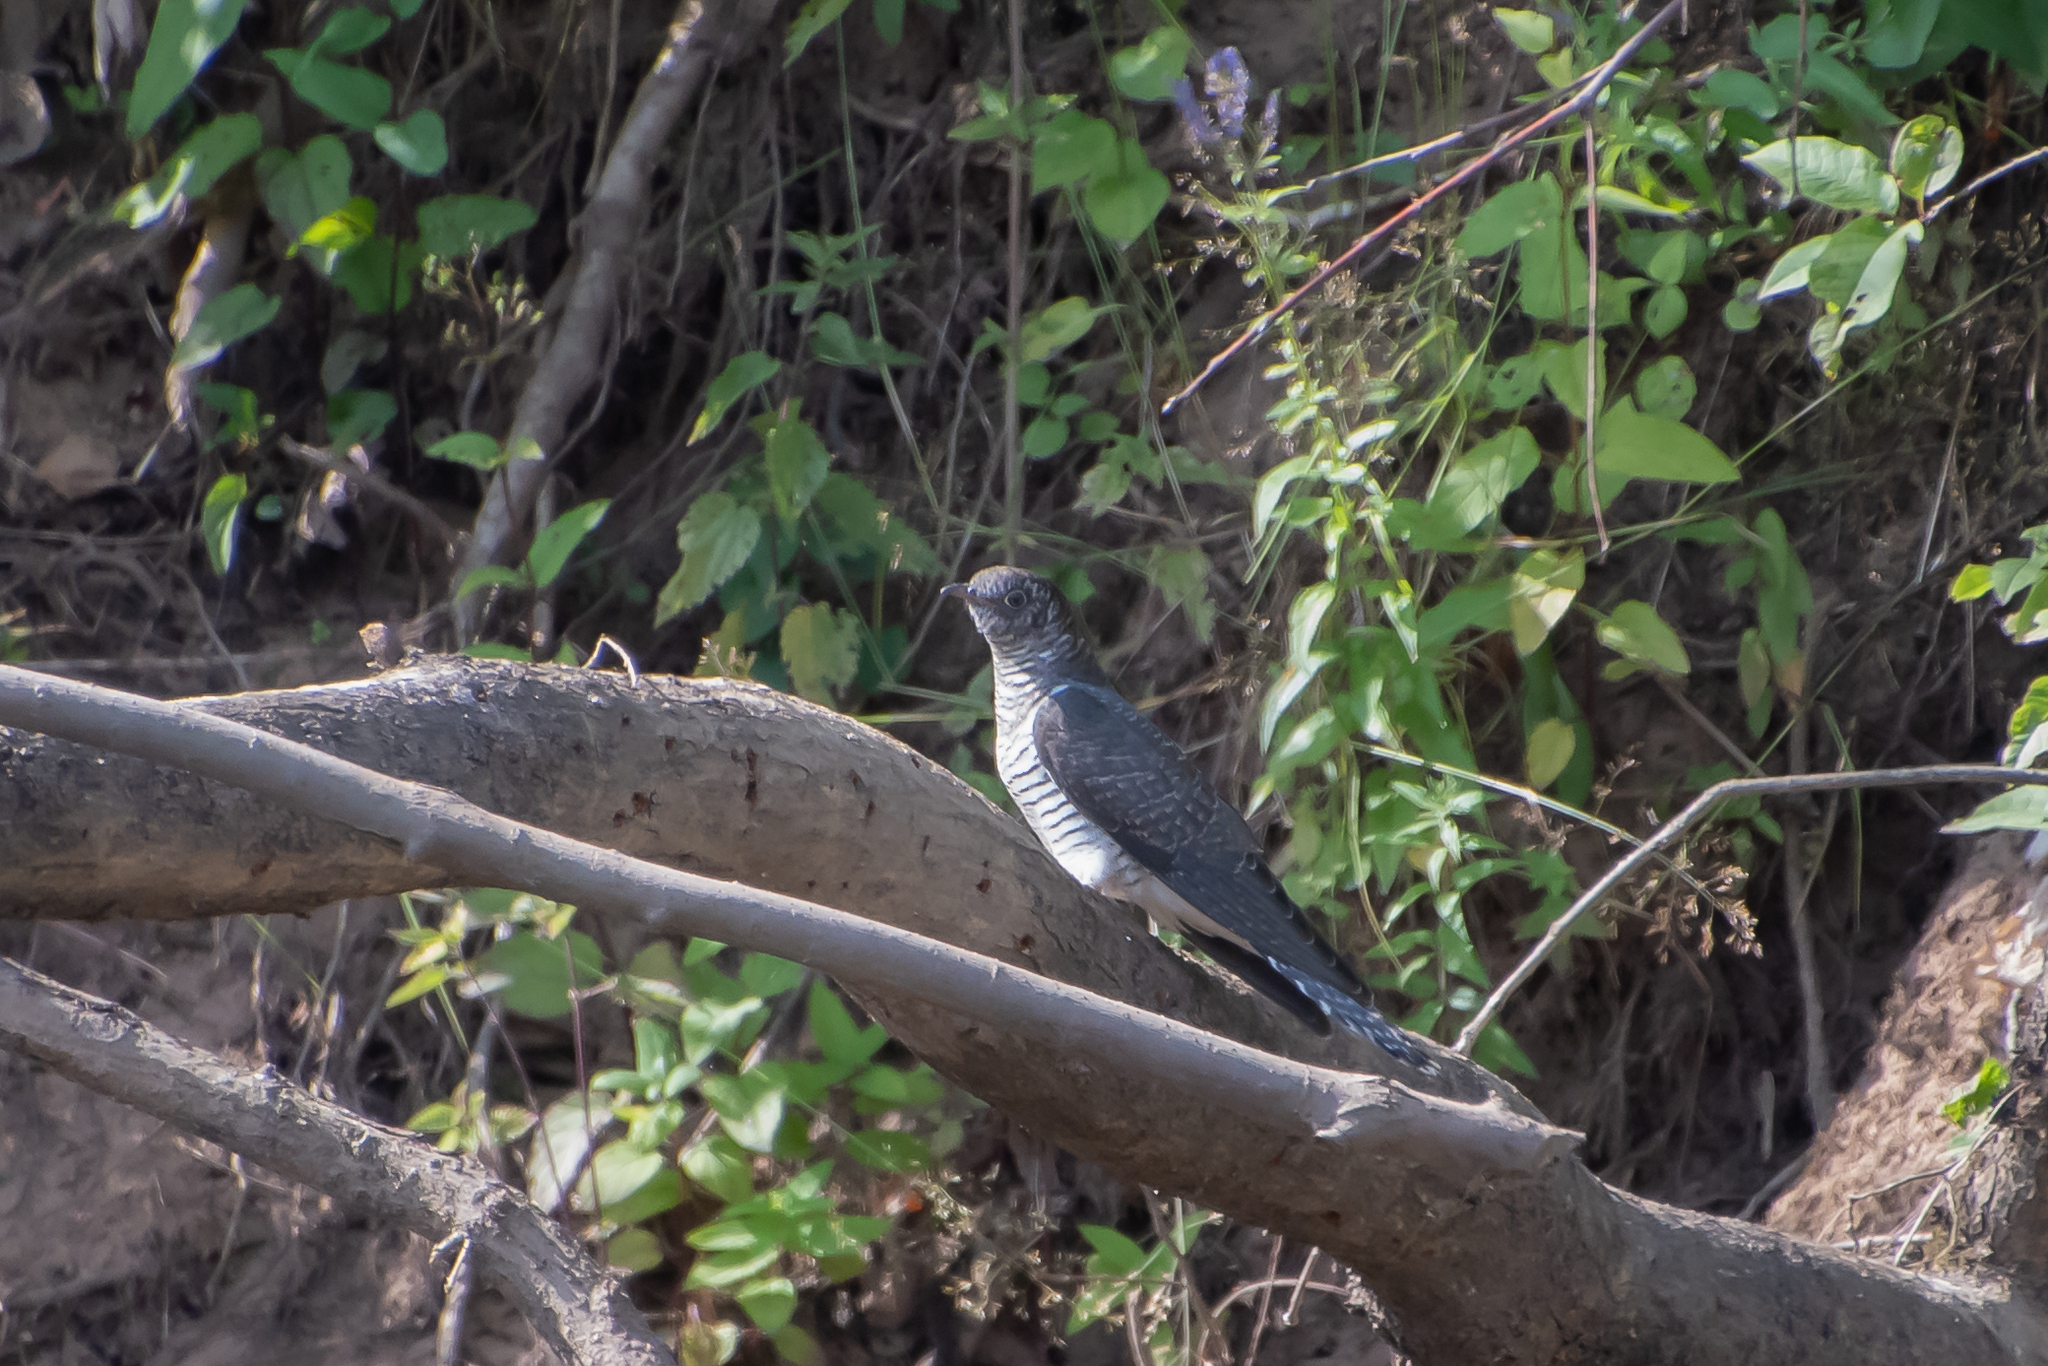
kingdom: Animalia
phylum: Chordata
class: Aves
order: Cuculiformes
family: Cuculidae
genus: Cuculus
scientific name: Cuculus canorus
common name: Common cuckoo
